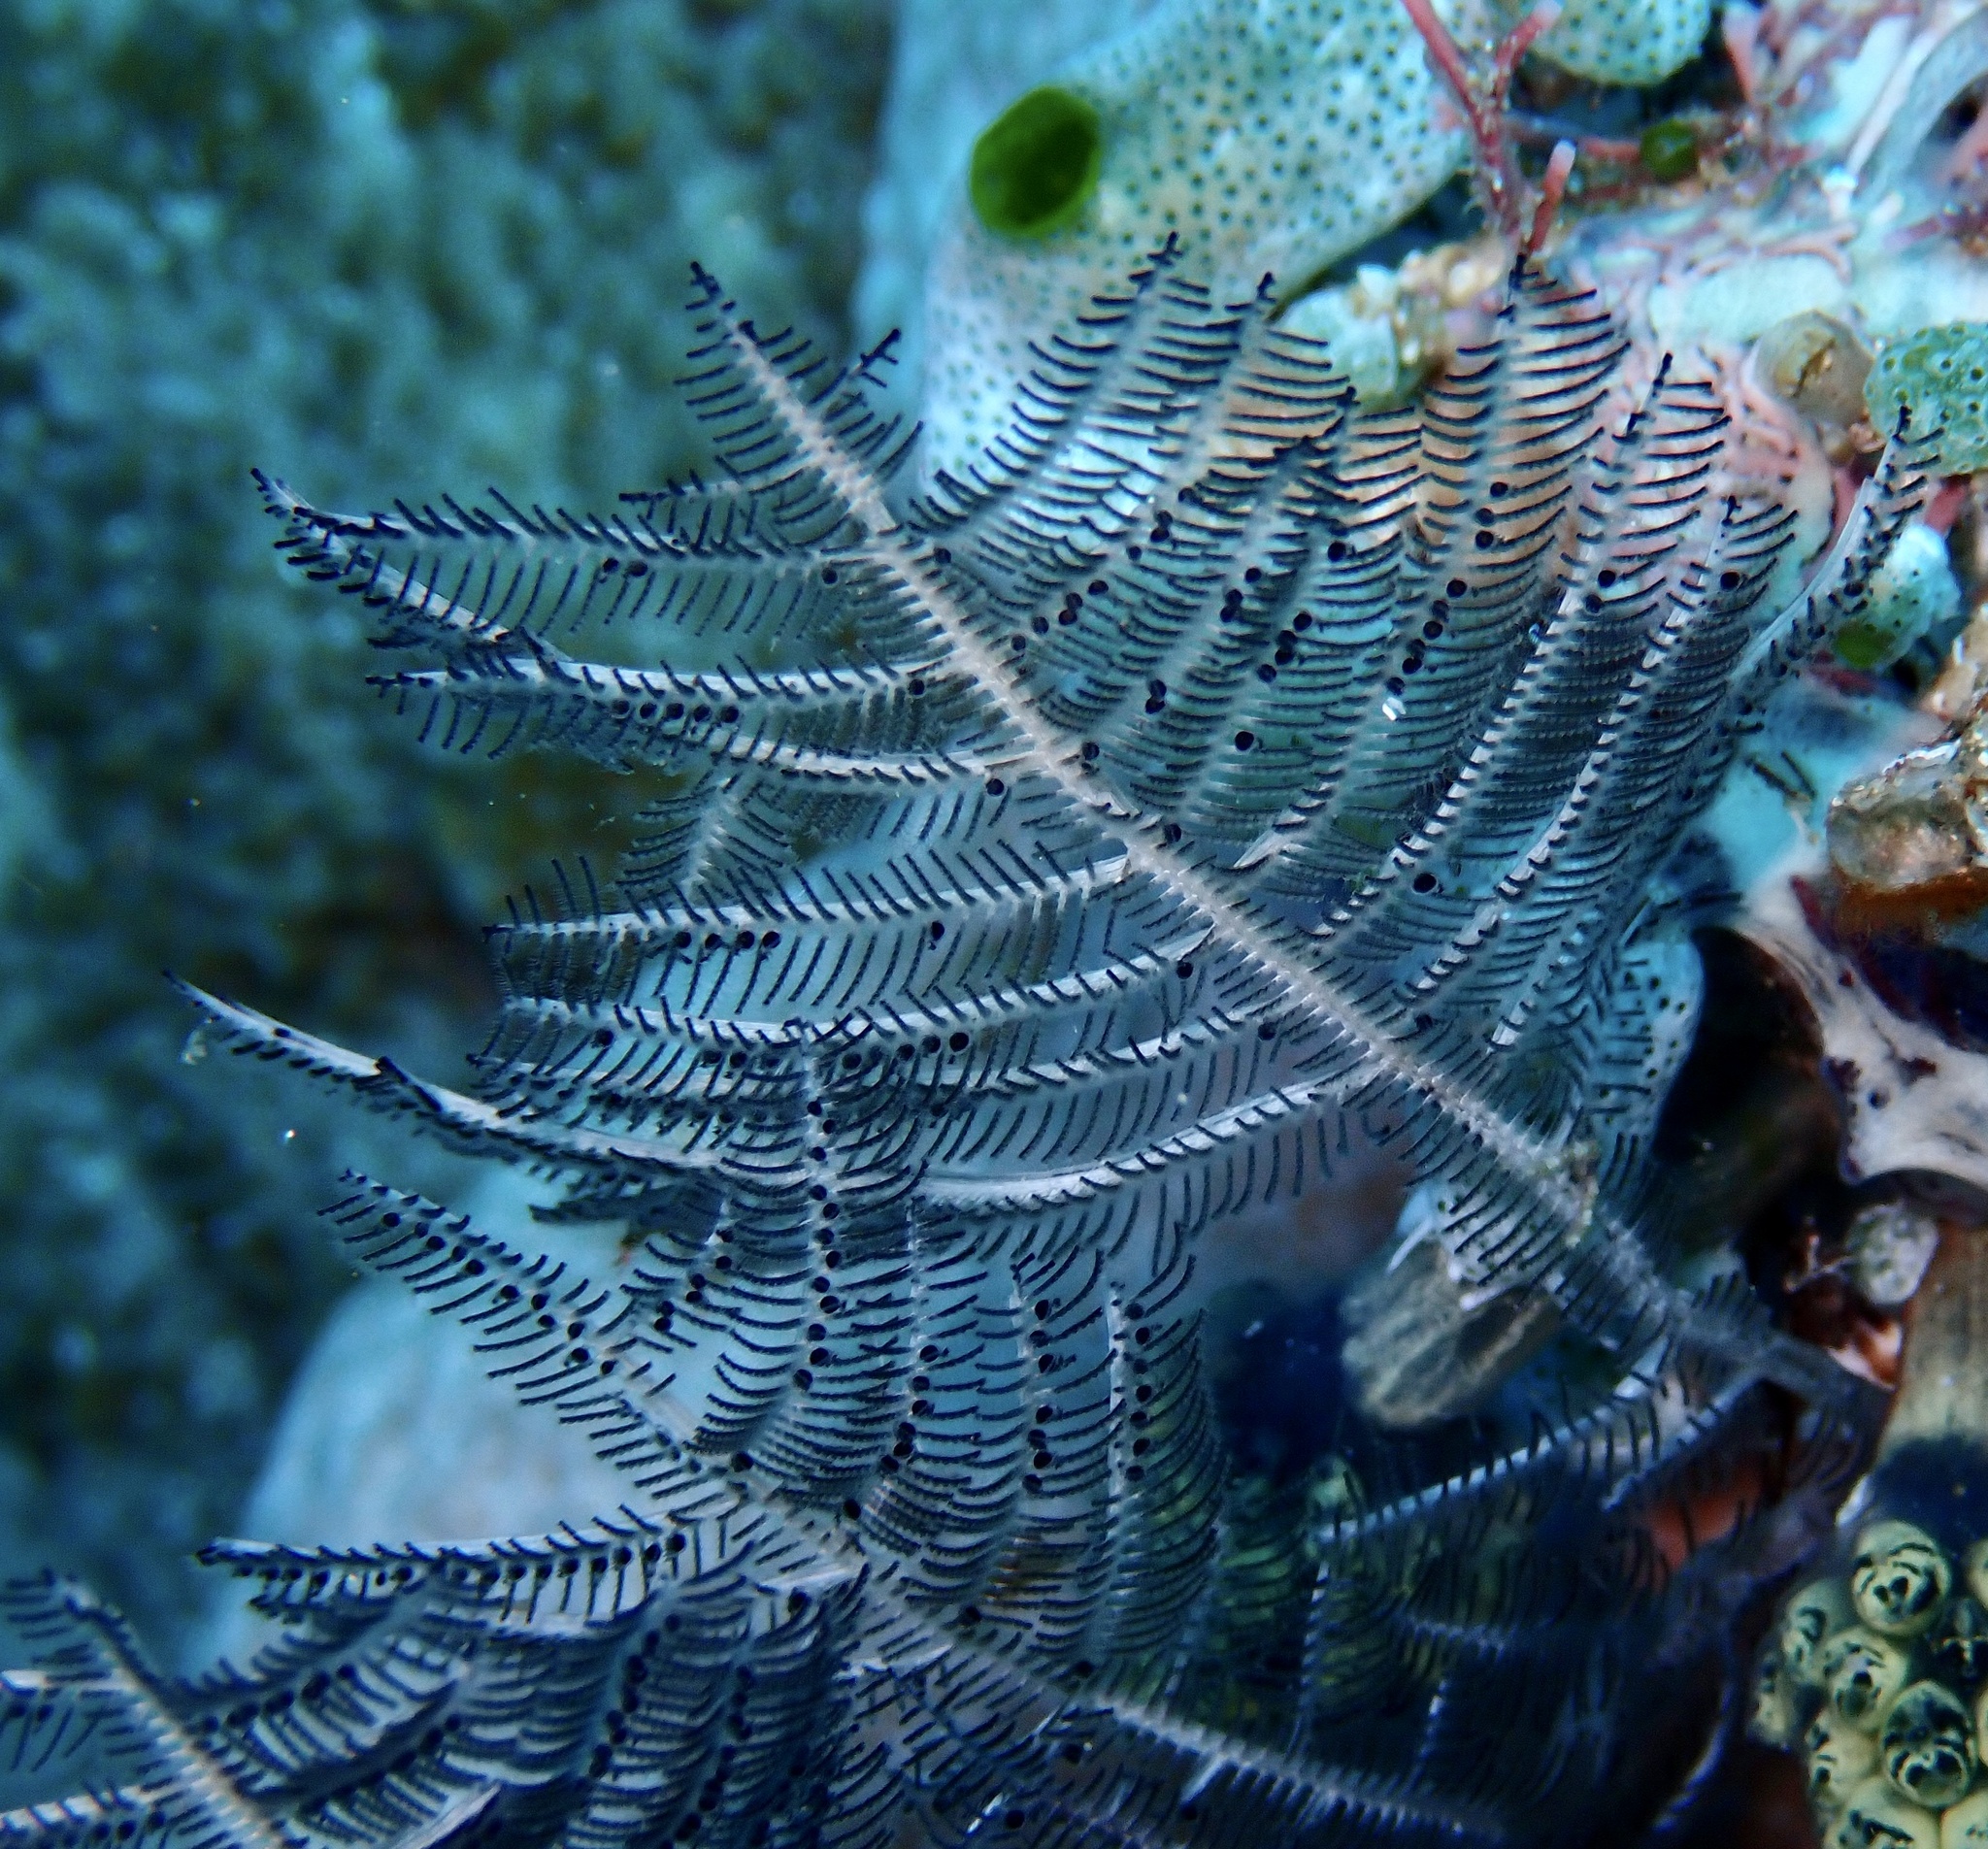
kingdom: Animalia
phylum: Cnidaria
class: Hydrozoa
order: Leptothecata
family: Aglaopheniidae
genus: Macrorhynchia
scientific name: Macrorhynchia phoenicea
